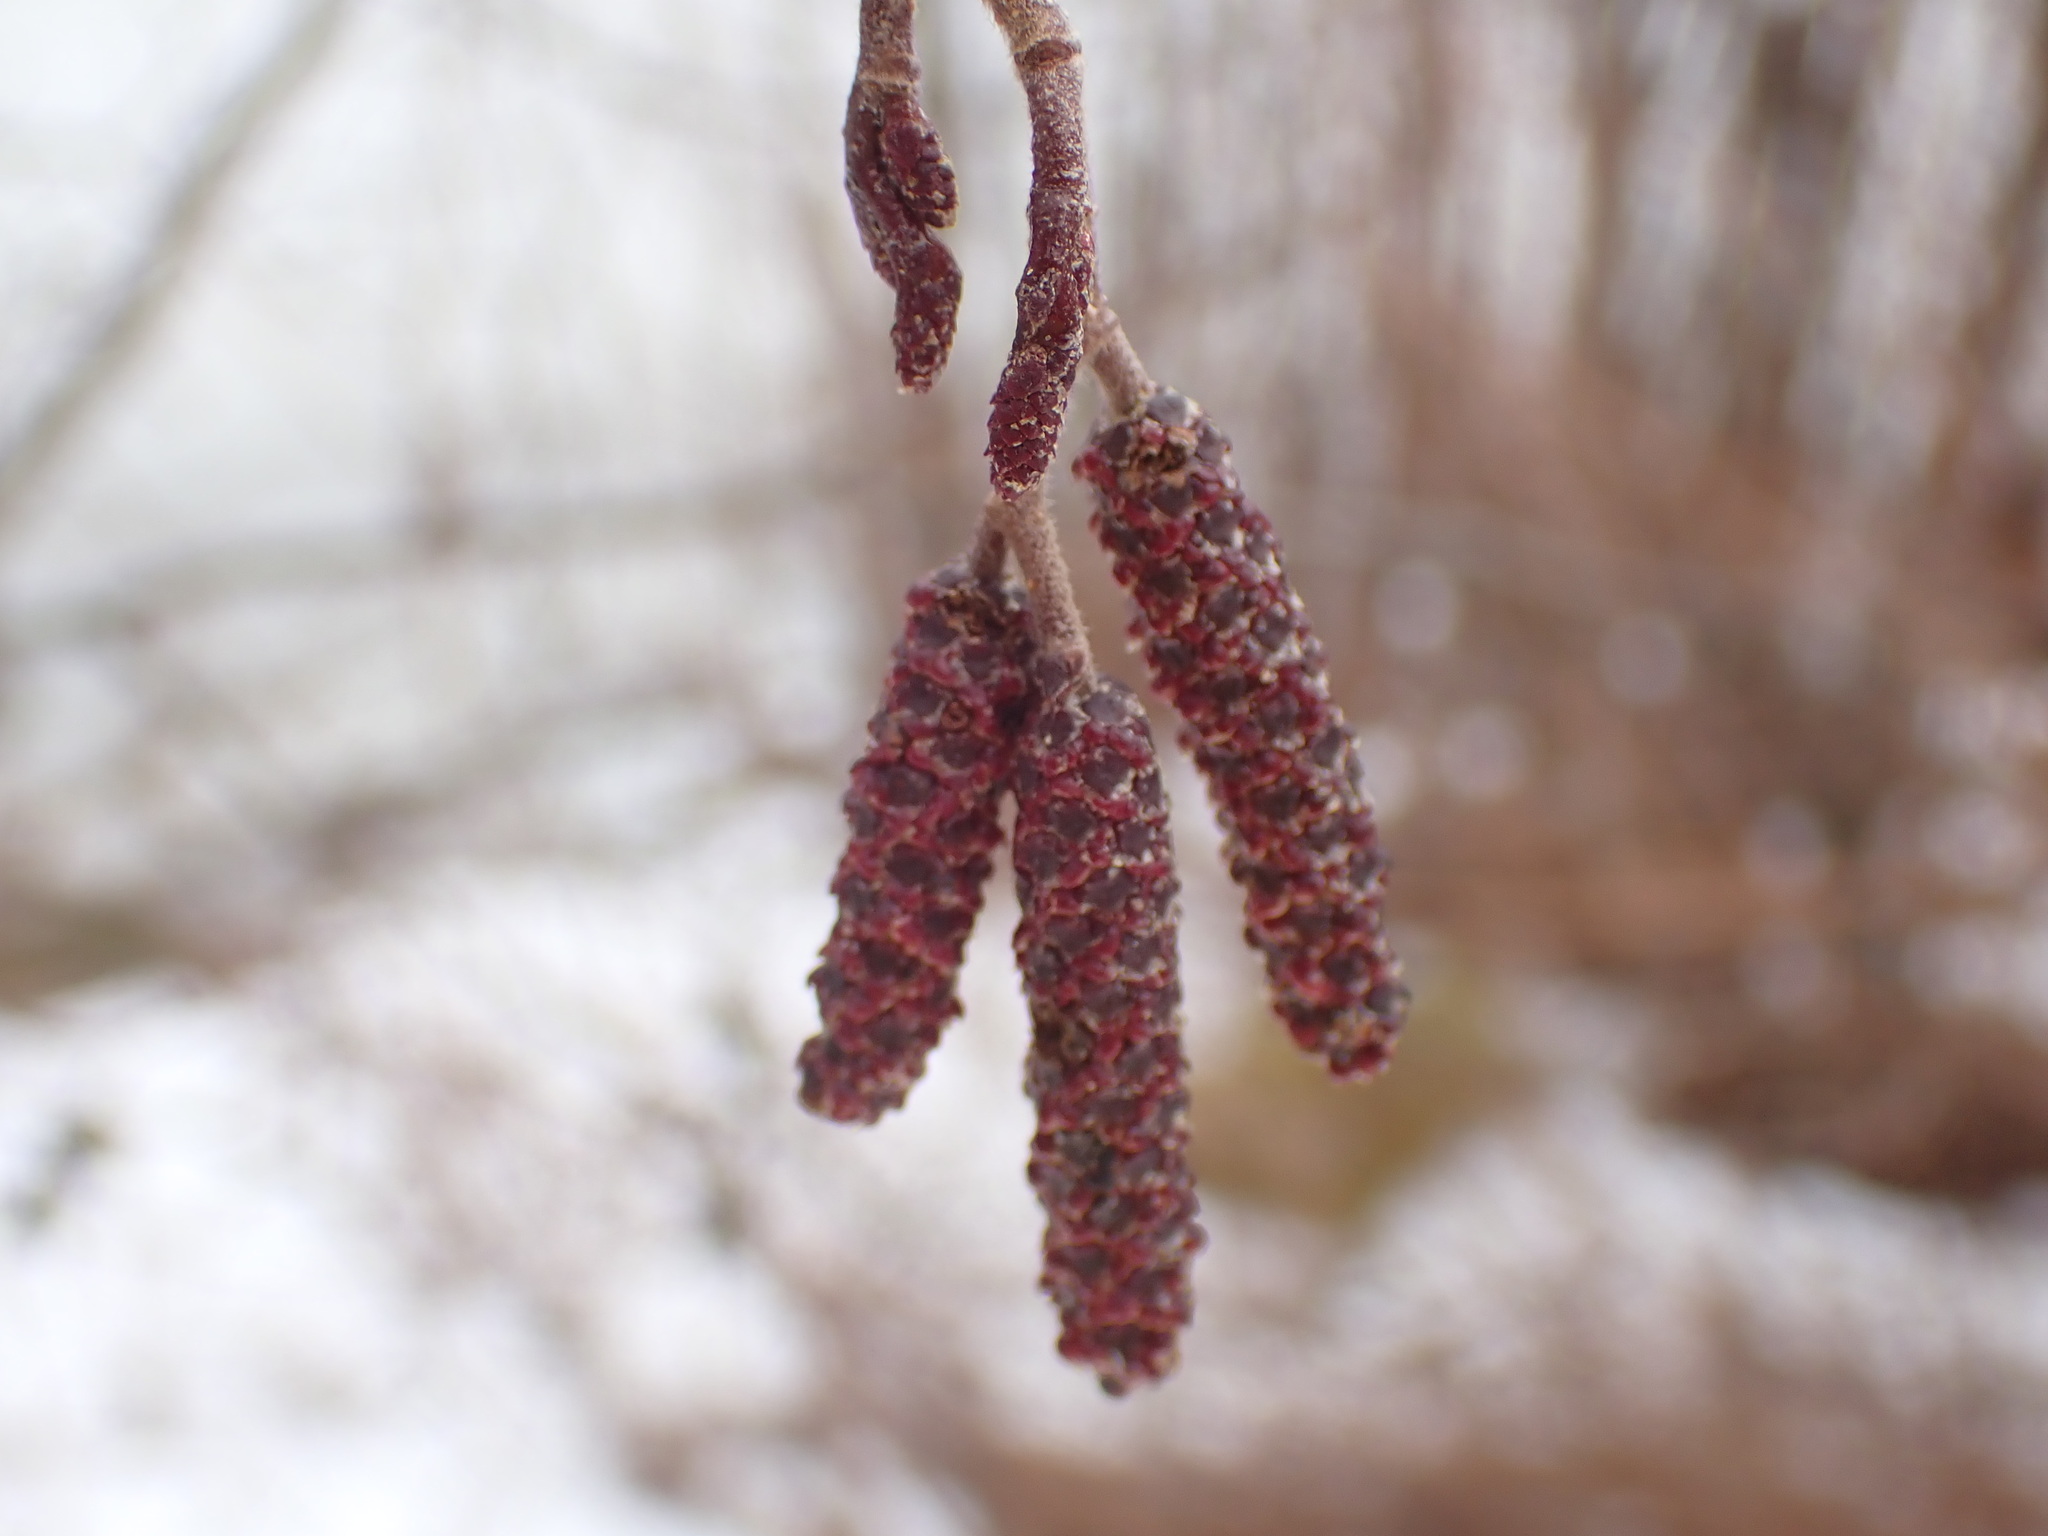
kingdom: Plantae
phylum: Tracheophyta
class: Magnoliopsida
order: Fagales
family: Betulaceae
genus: Alnus
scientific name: Alnus incana
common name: Grey alder
